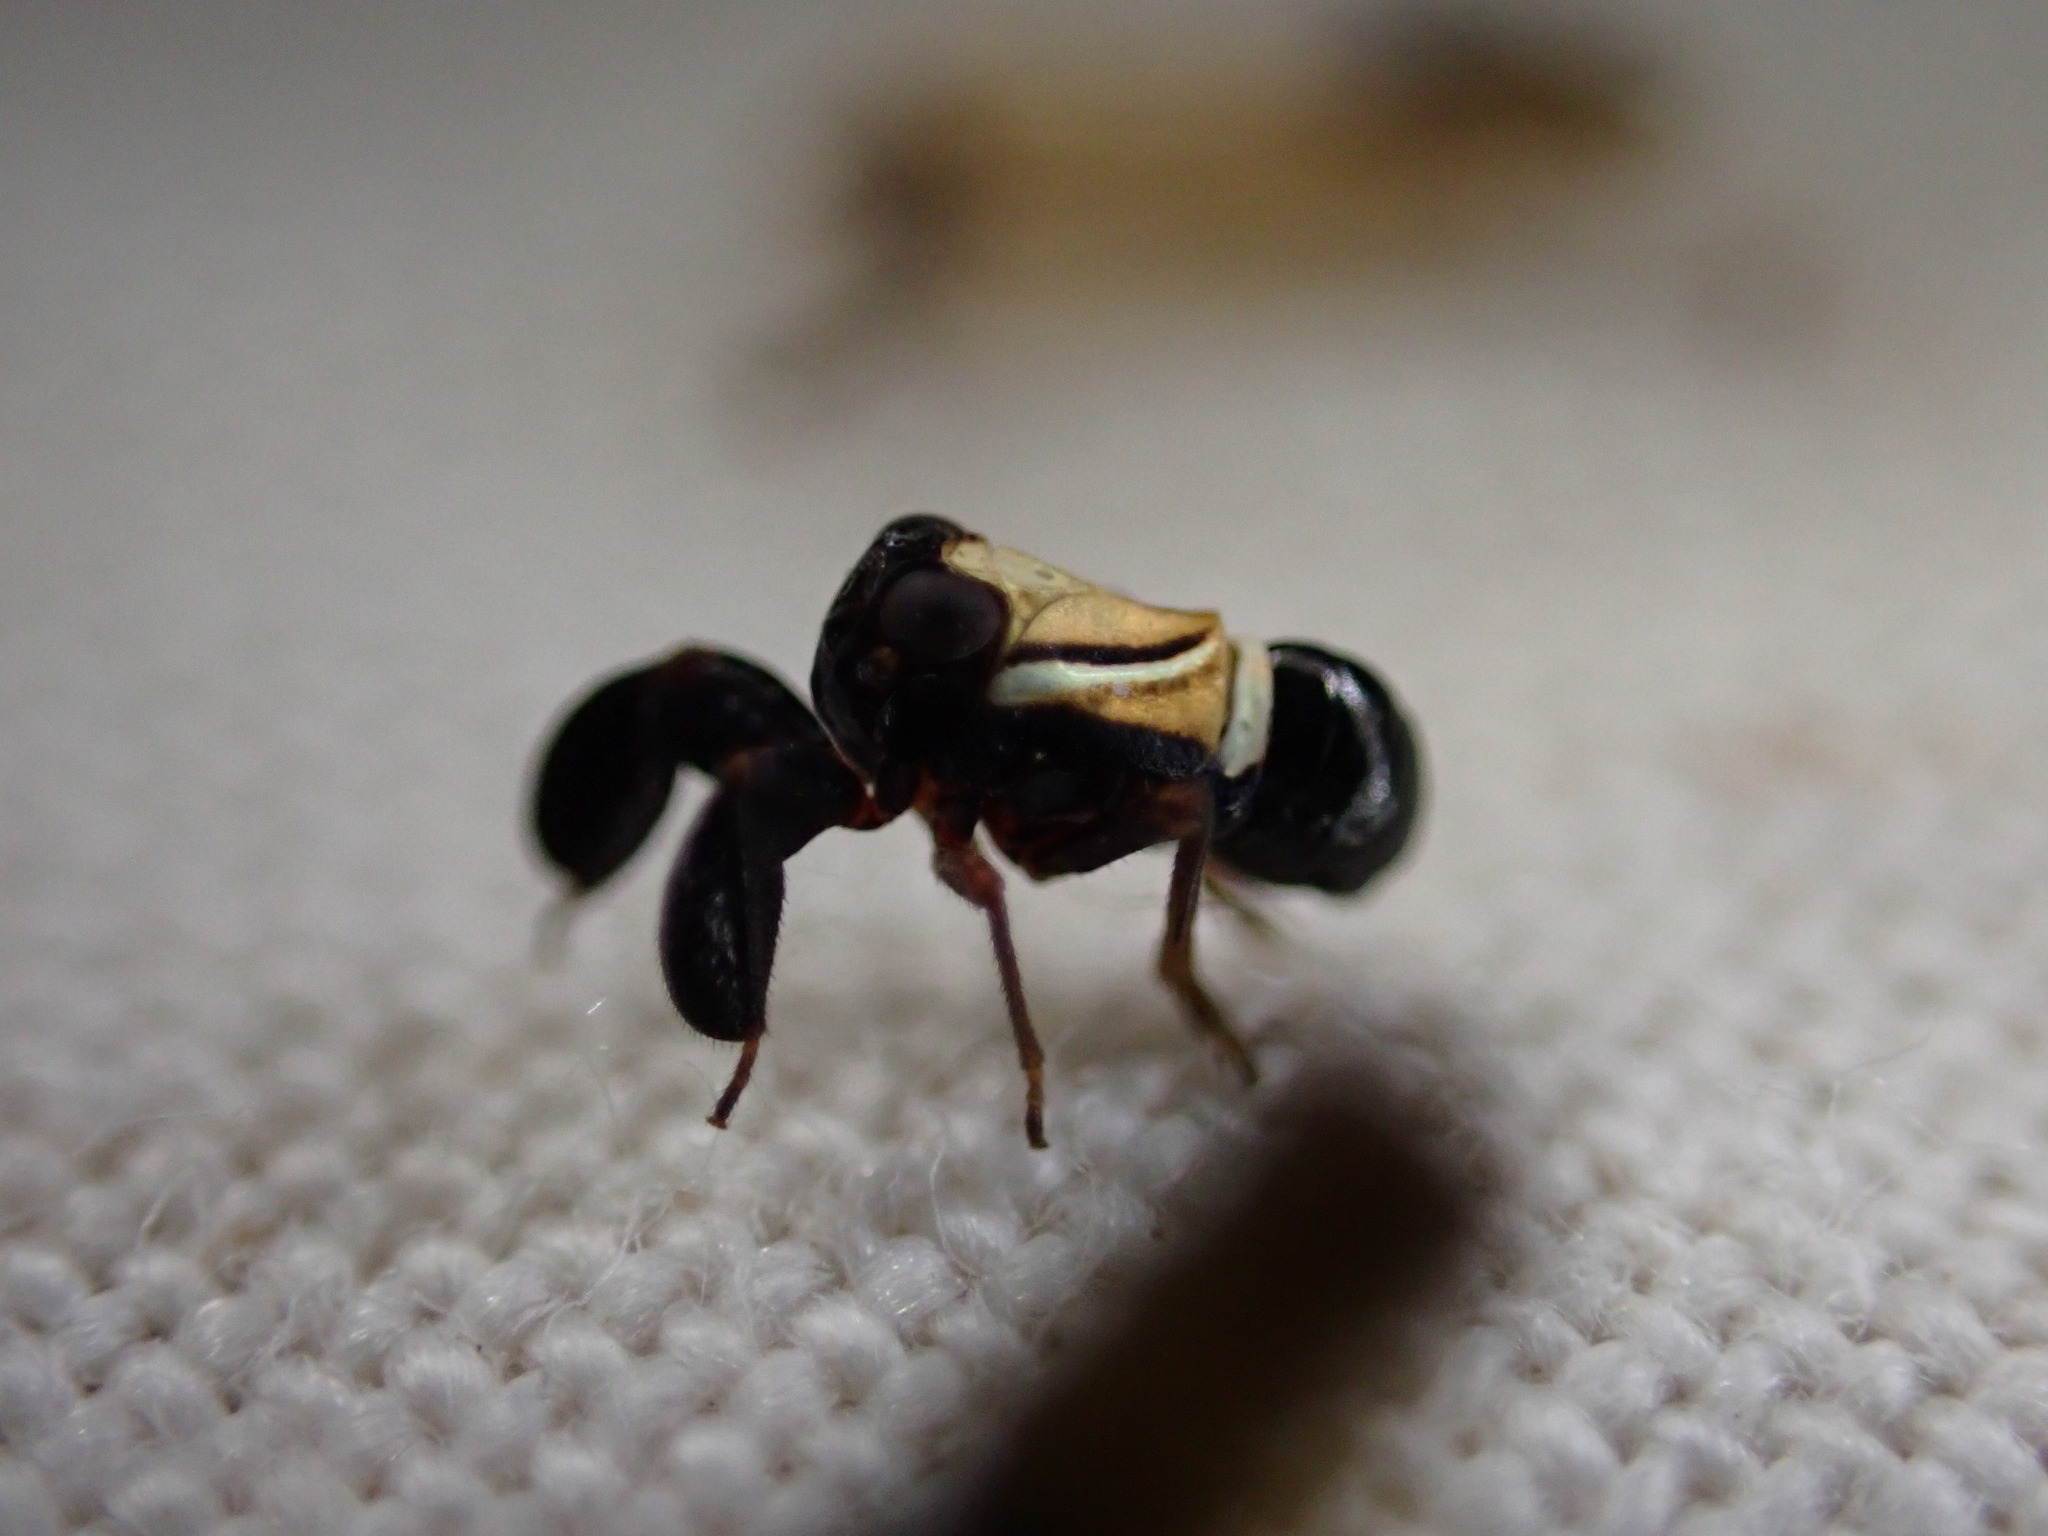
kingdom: Animalia
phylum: Arthropoda
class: Insecta
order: Hemiptera
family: Caliscelidae
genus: Caliscelis
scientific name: Caliscelis bonellii
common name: Planthopper
